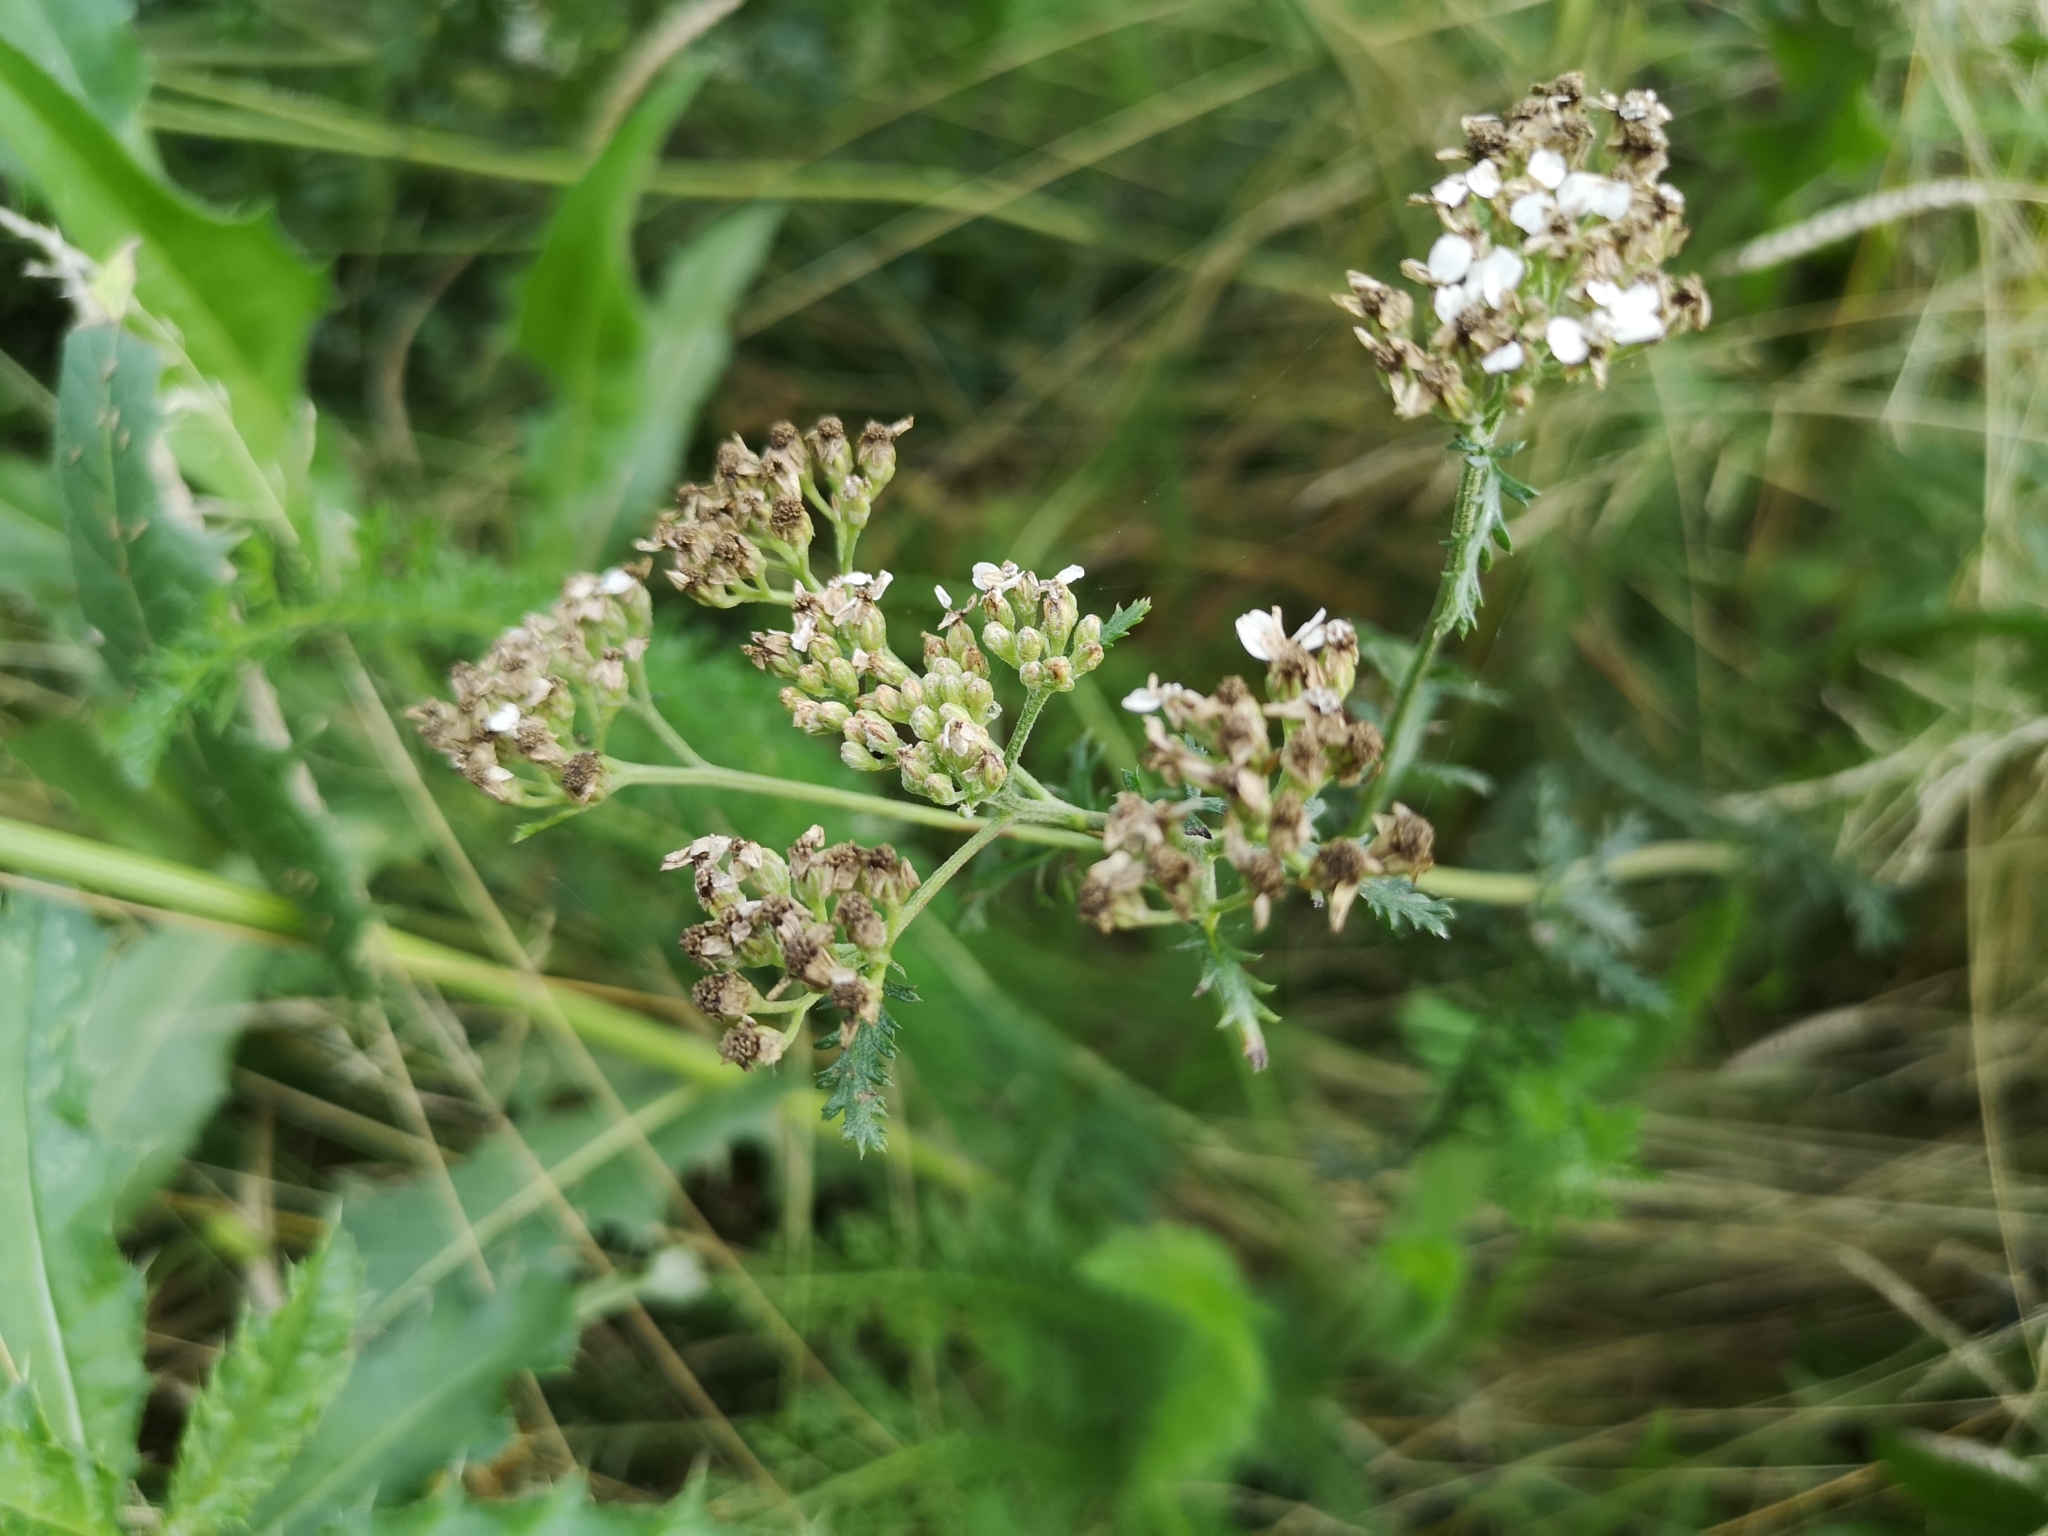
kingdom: Plantae
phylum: Tracheophyta
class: Magnoliopsida
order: Asterales
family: Asteraceae
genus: Achillea
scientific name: Achillea millefolium
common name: Yarrow
